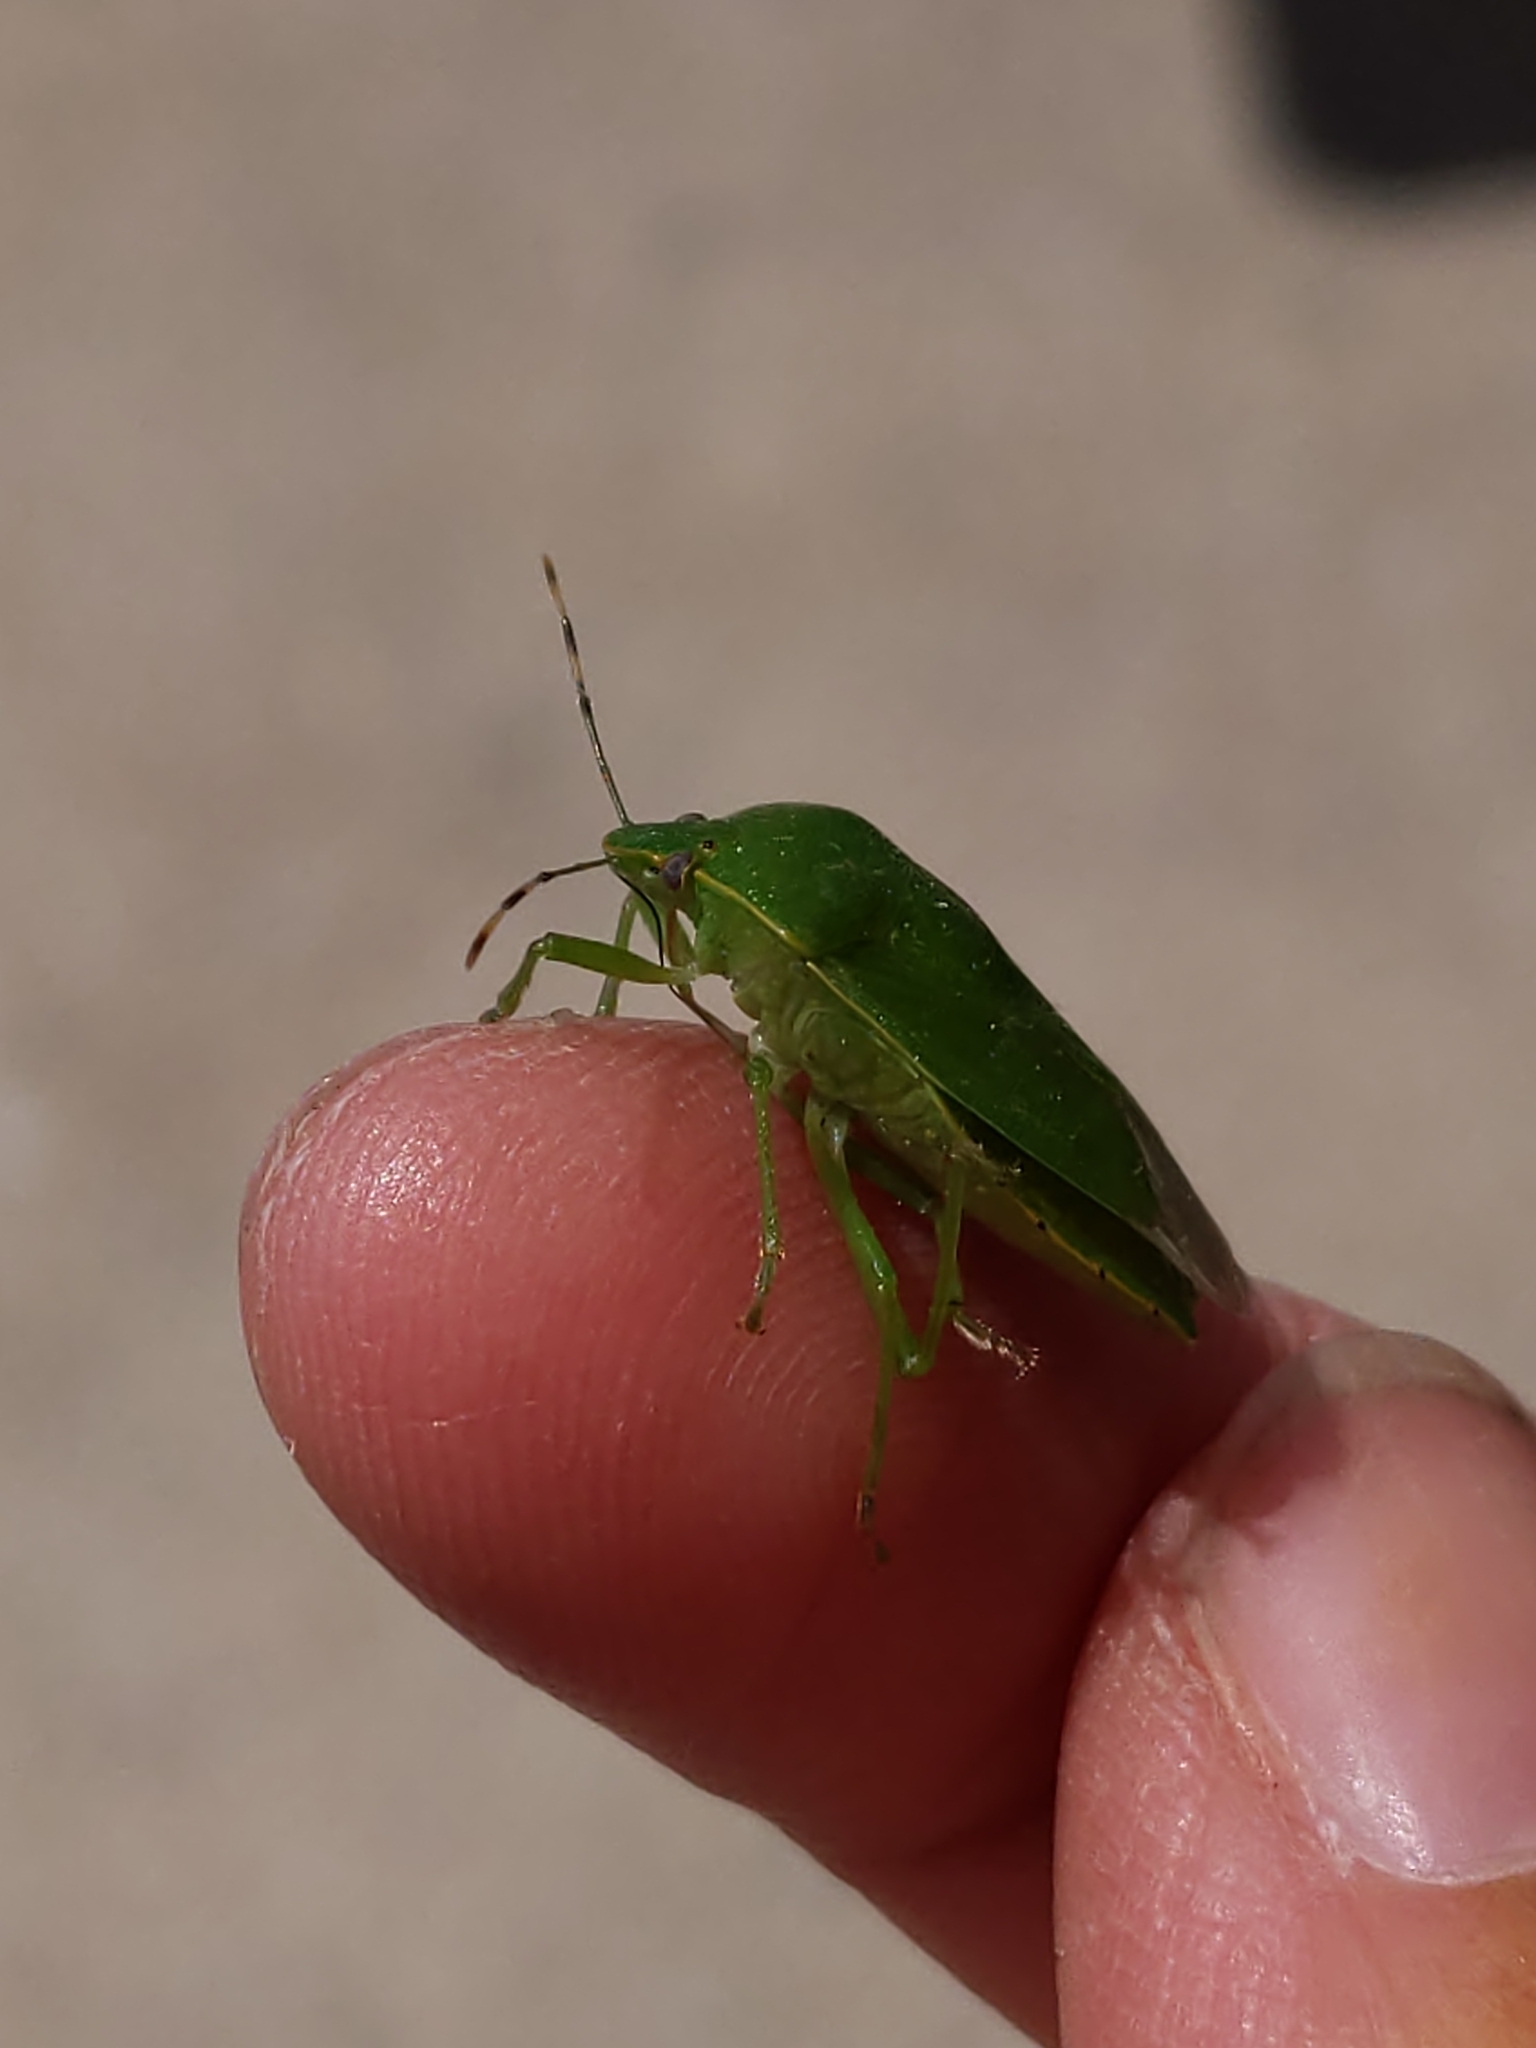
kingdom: Animalia
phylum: Arthropoda
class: Insecta
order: Hemiptera
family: Pentatomidae
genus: Chinavia
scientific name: Chinavia hilaris
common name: Green stink bug
